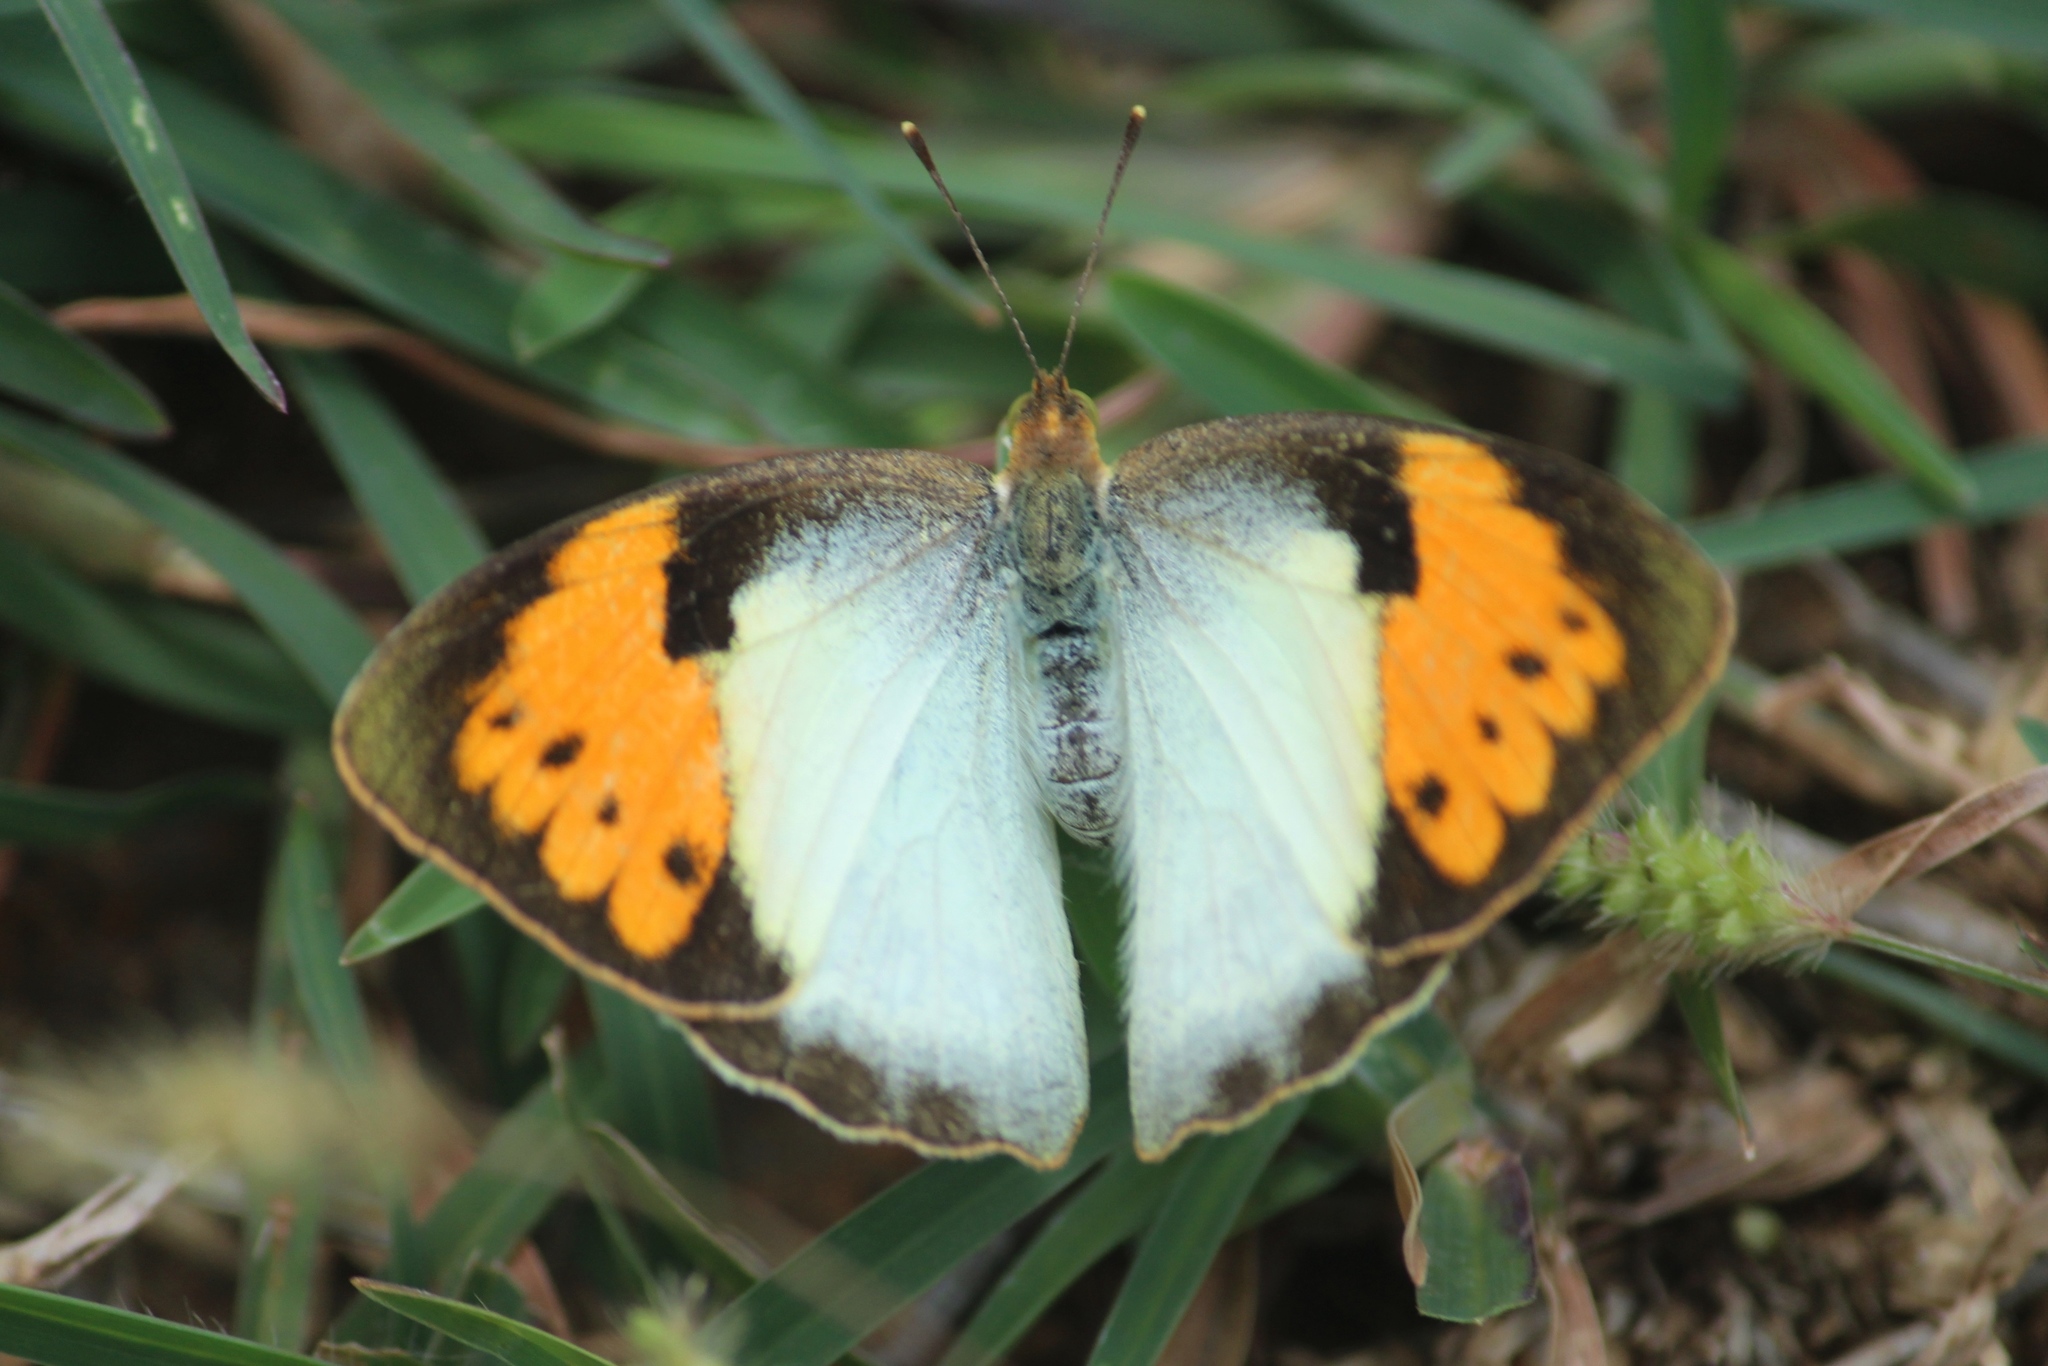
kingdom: Animalia
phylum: Arthropoda
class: Insecta
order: Lepidoptera
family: Pieridae
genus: Ixias
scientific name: Ixias marianne
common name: White orange tip
